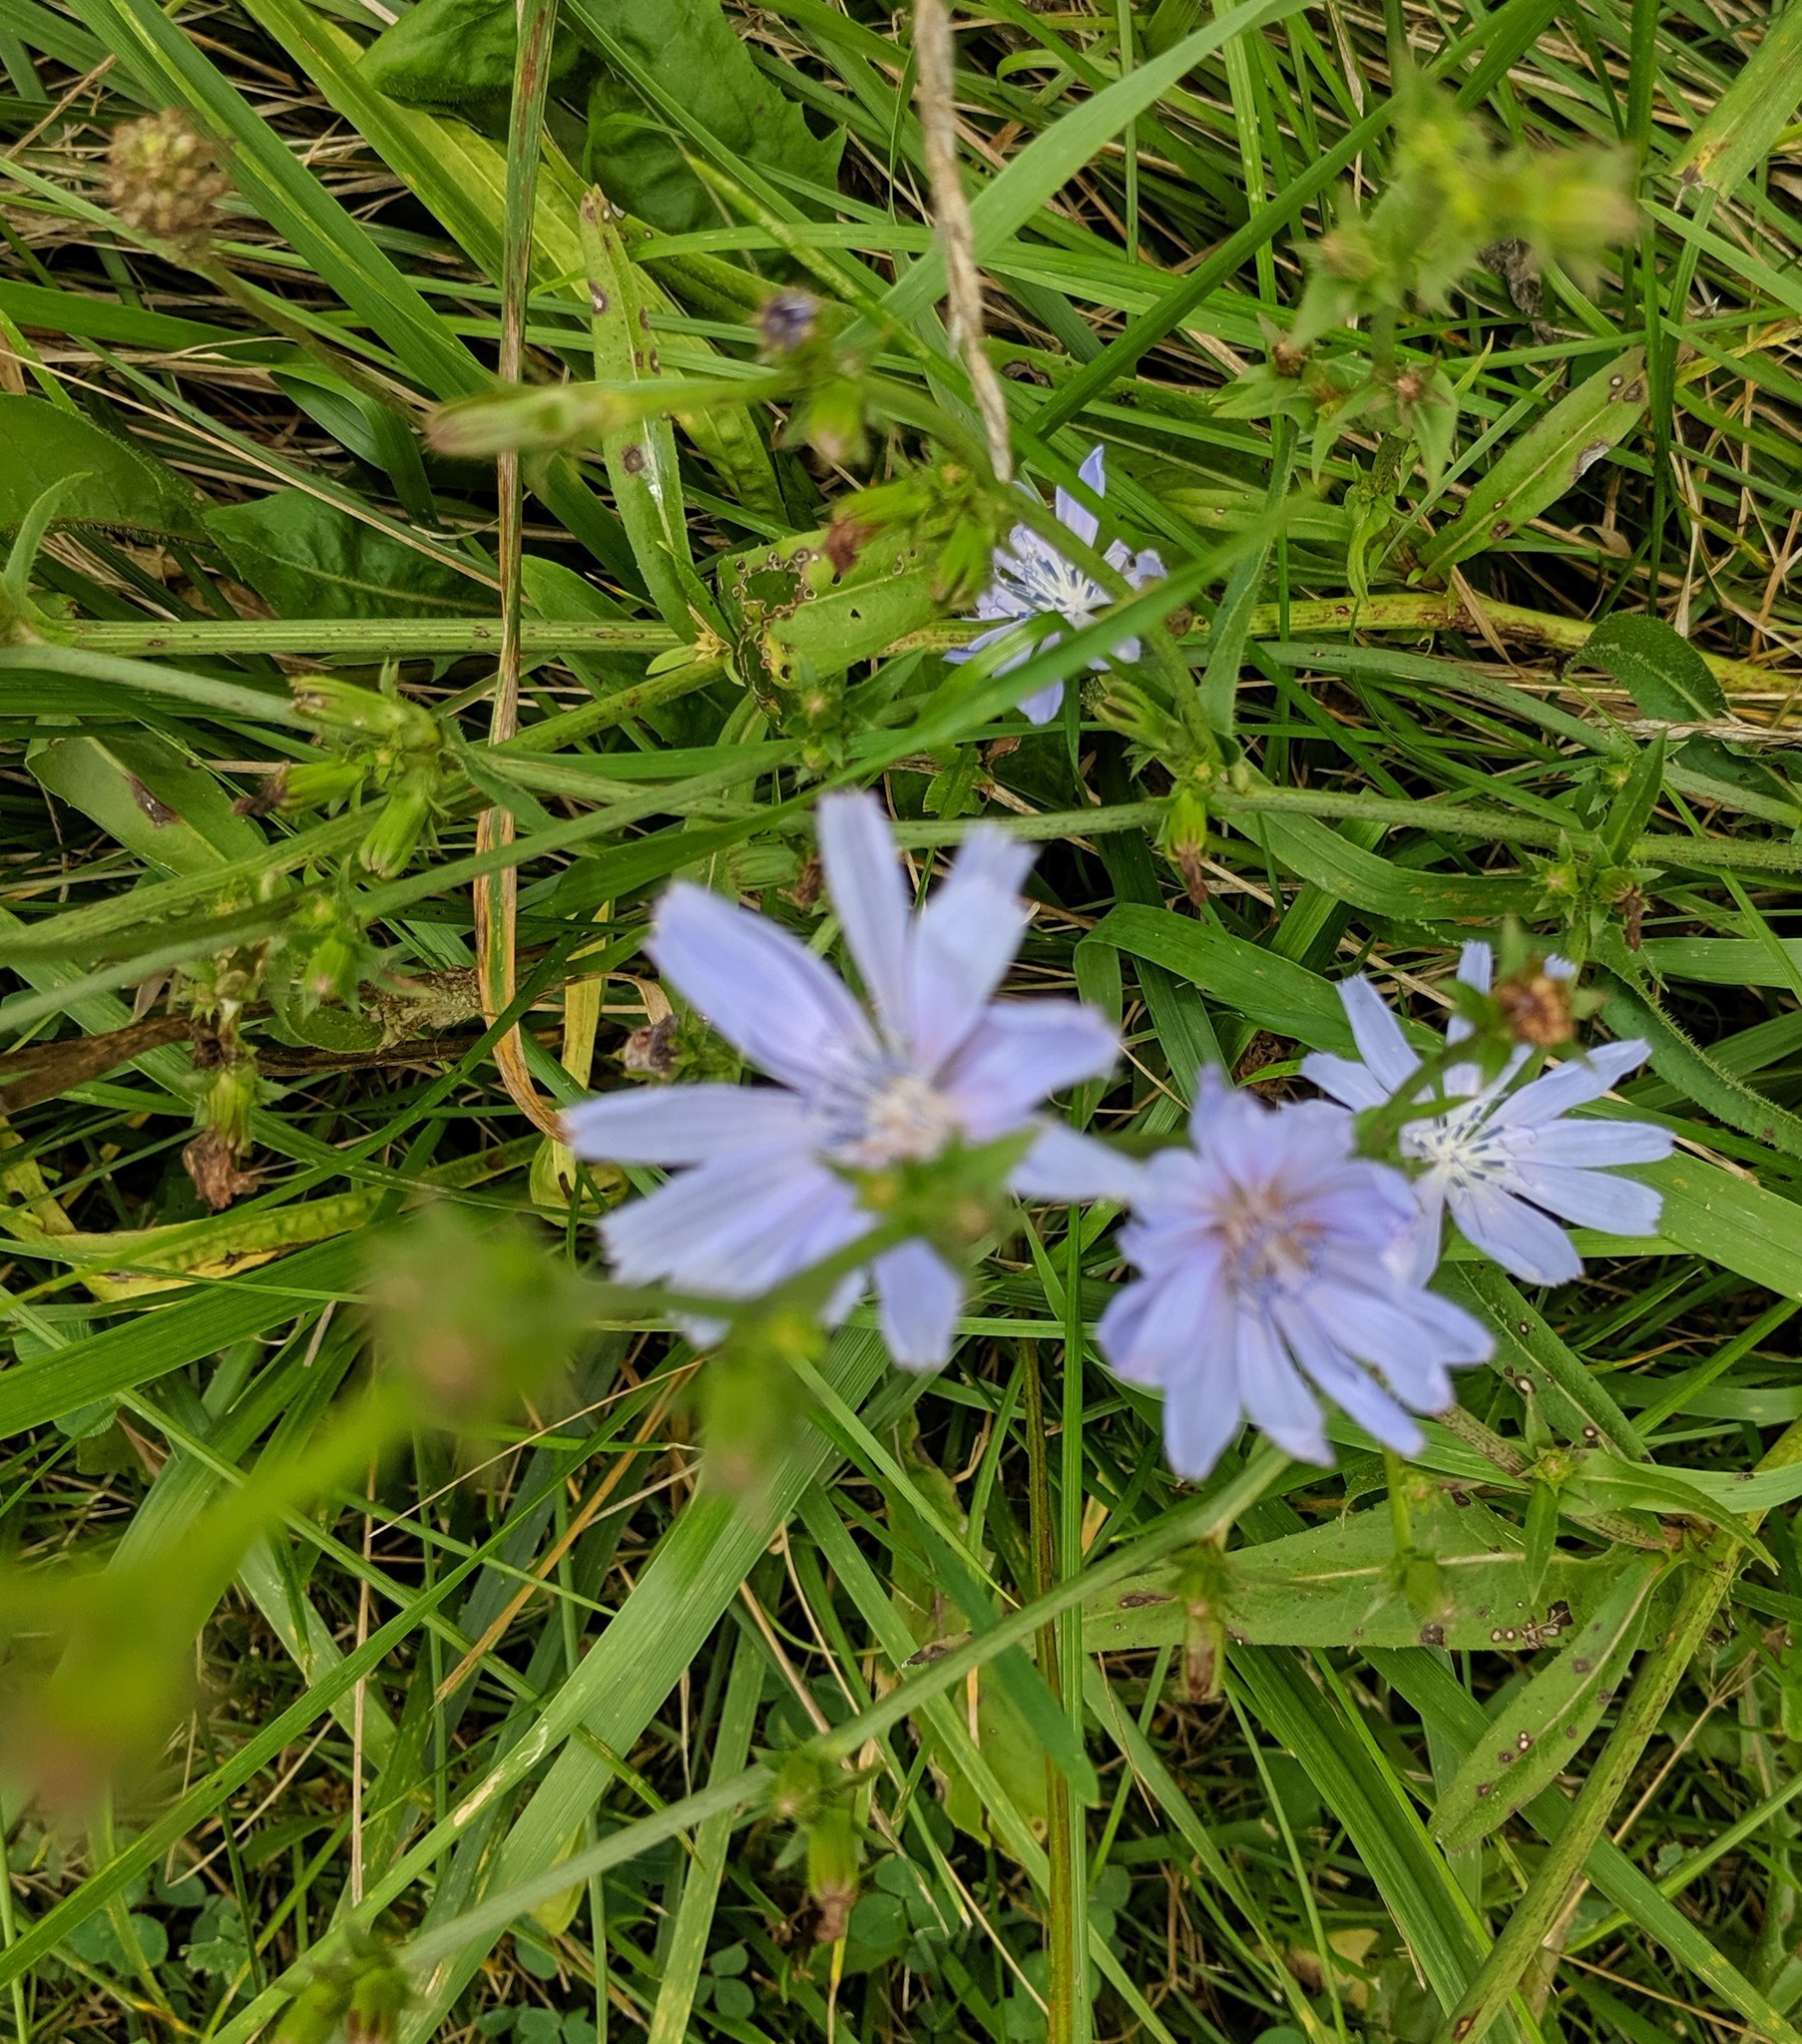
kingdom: Plantae
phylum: Tracheophyta
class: Magnoliopsida
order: Asterales
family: Asteraceae
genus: Cichorium
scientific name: Cichorium intybus
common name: Chicory
